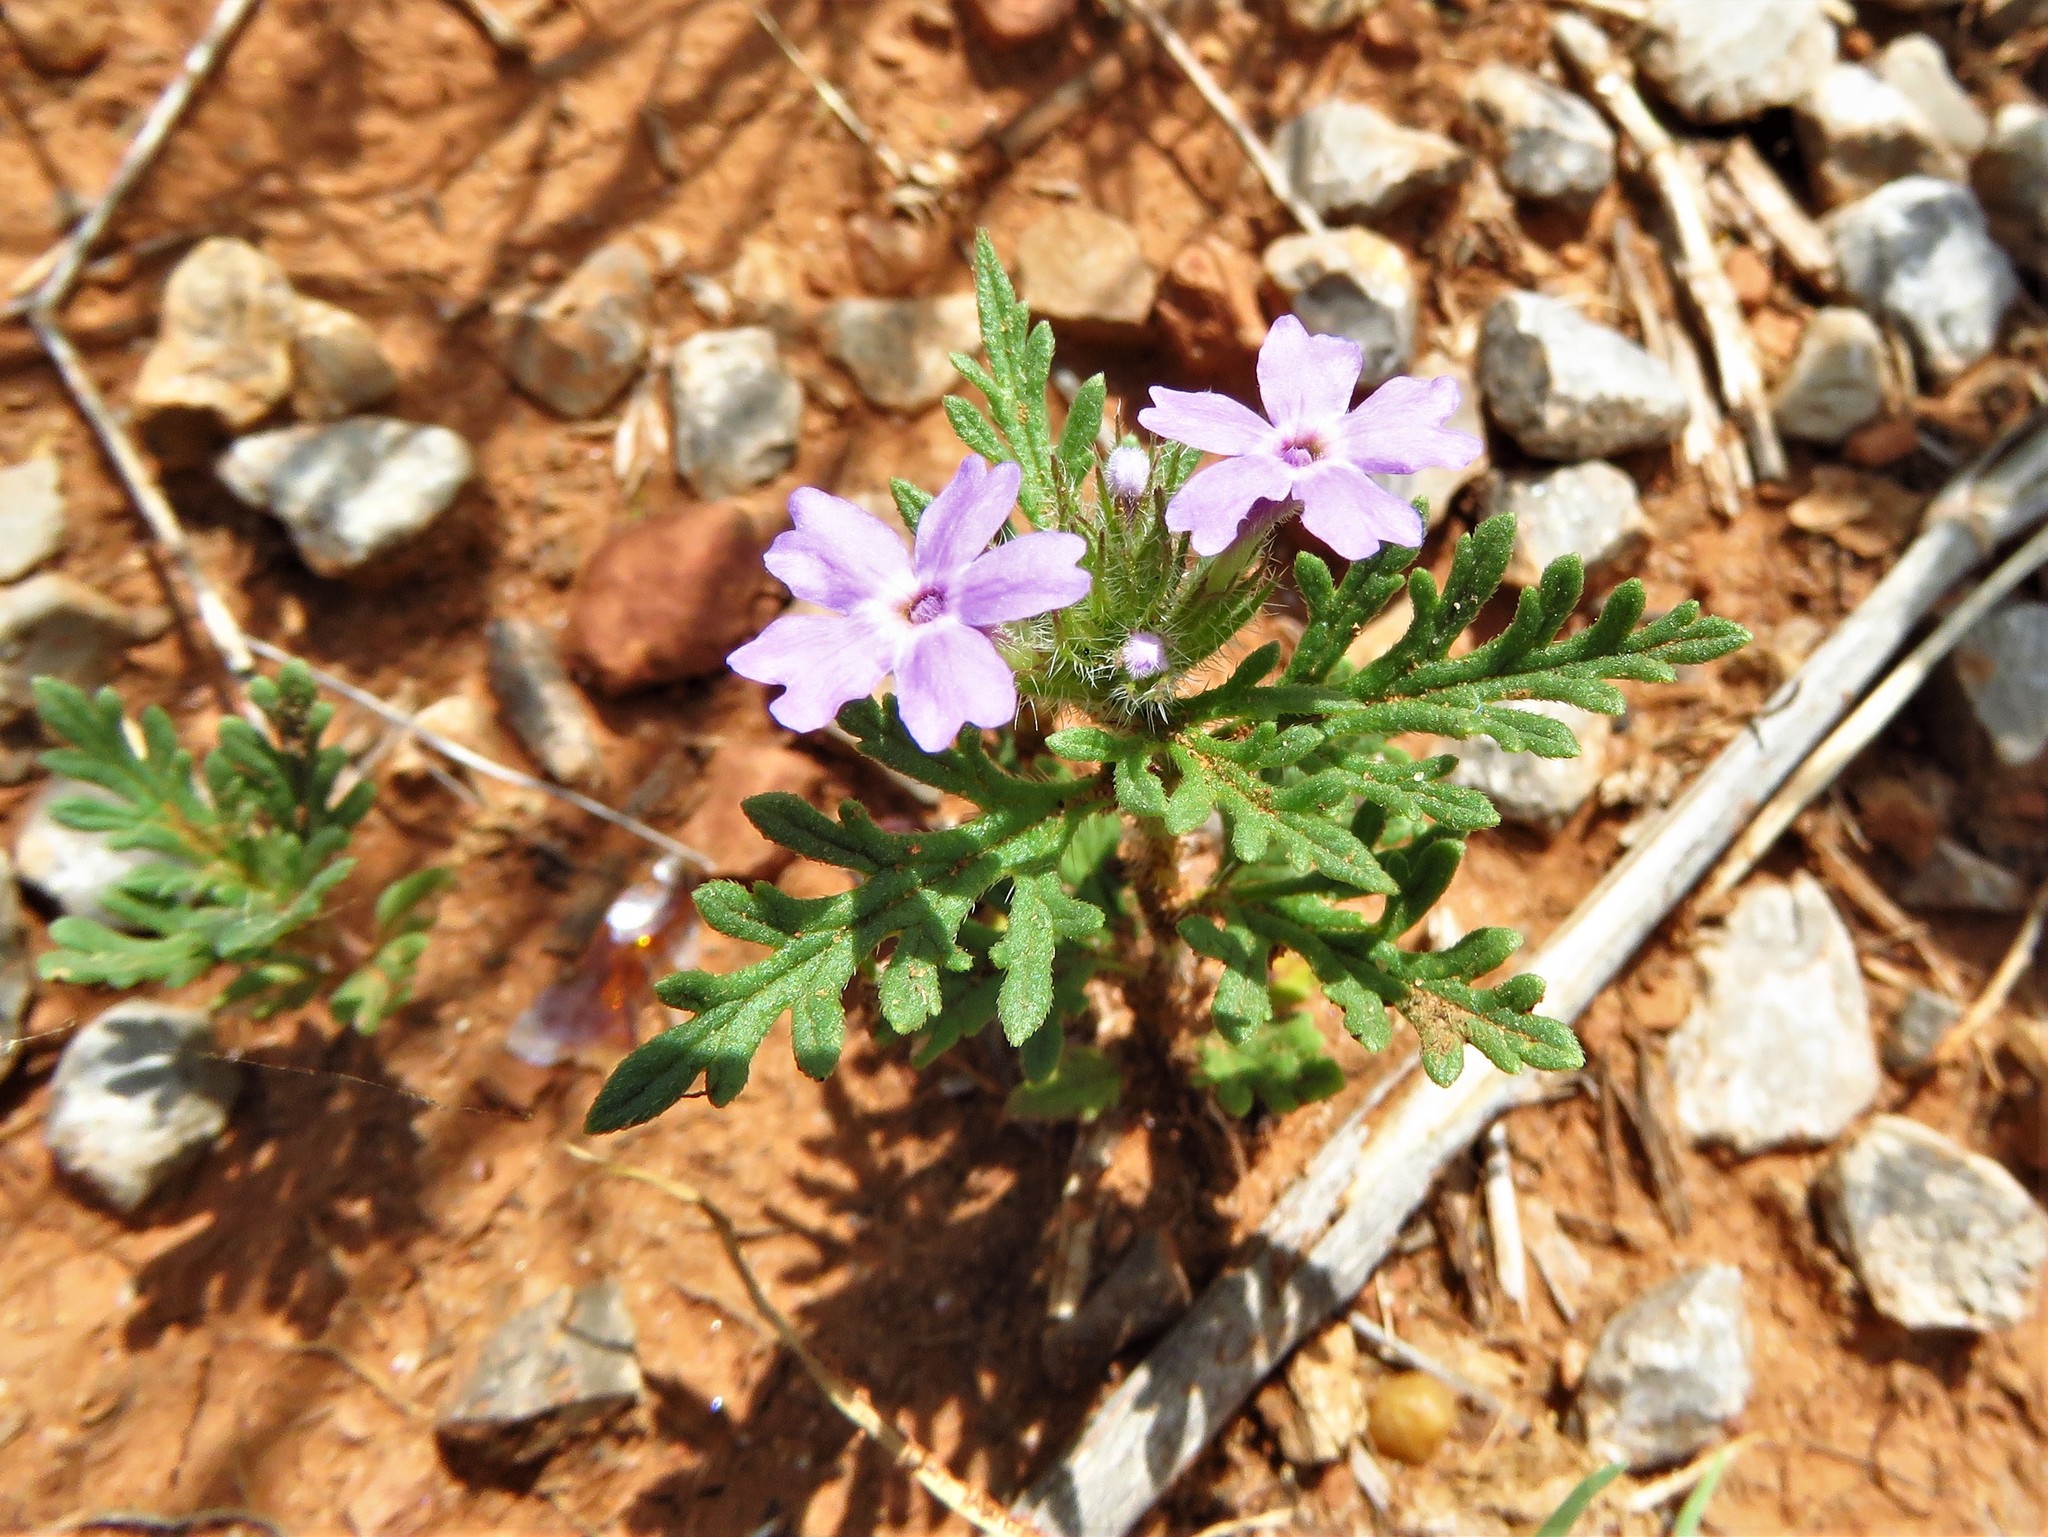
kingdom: Plantae
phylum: Tracheophyta
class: Magnoliopsida
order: Lamiales
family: Verbenaceae
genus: Verbena
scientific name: Verbena pumila
